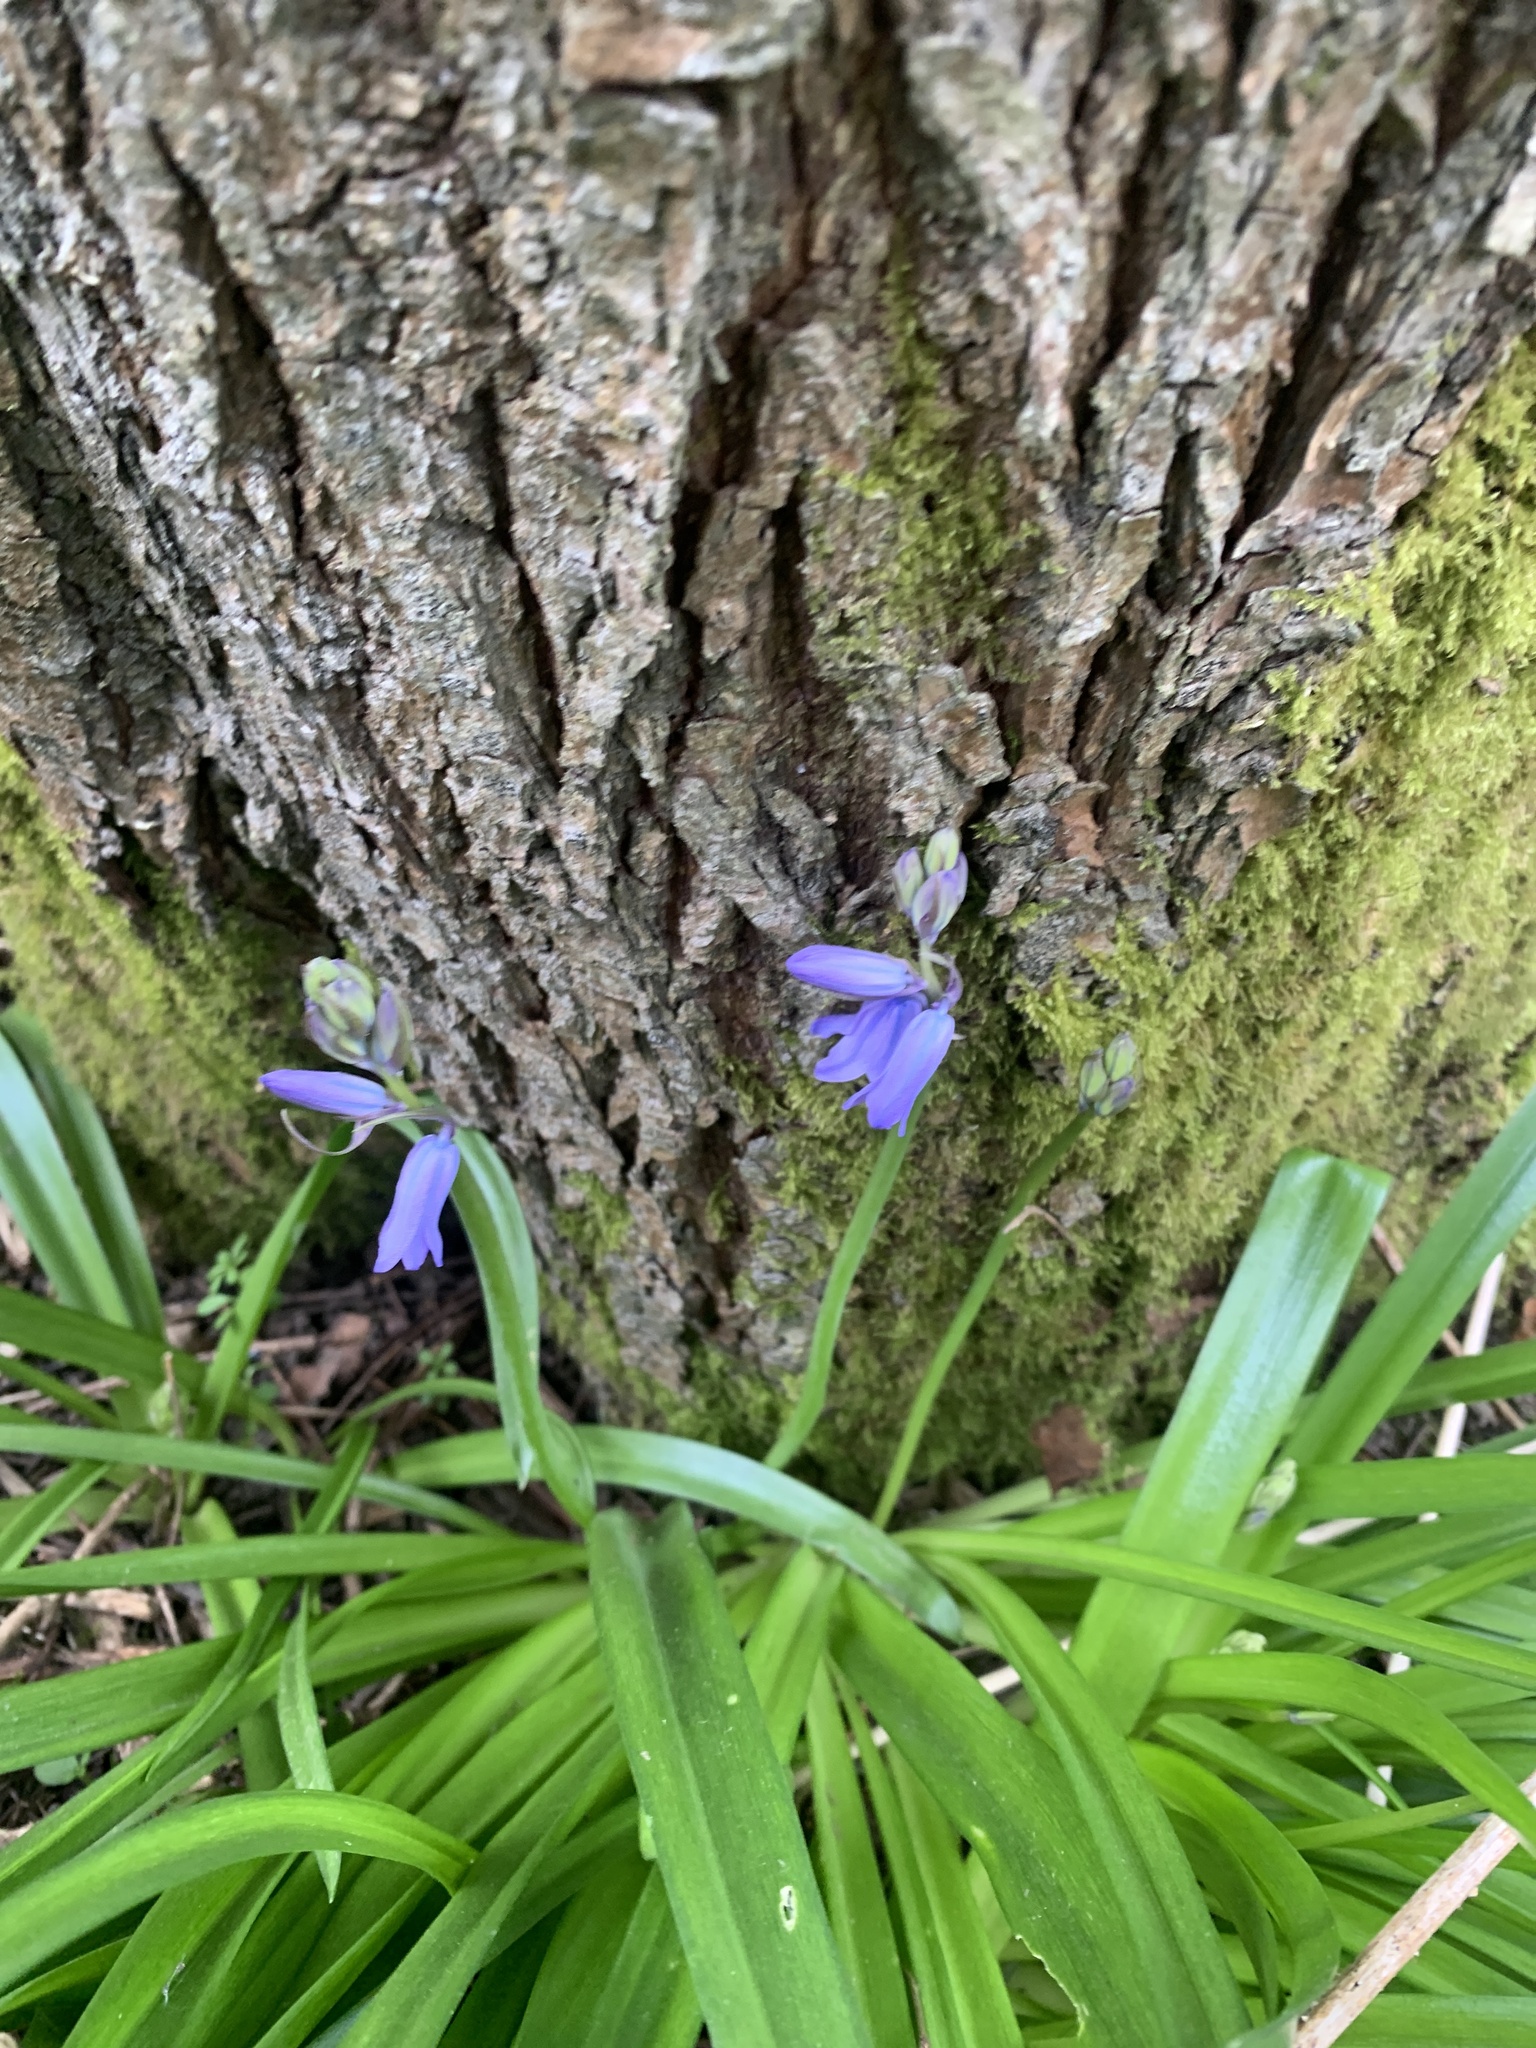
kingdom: Plantae
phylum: Tracheophyta
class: Liliopsida
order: Asparagales
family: Asparagaceae
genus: Hyacinthoides
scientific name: Hyacinthoides non-scripta
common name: Bluebell
